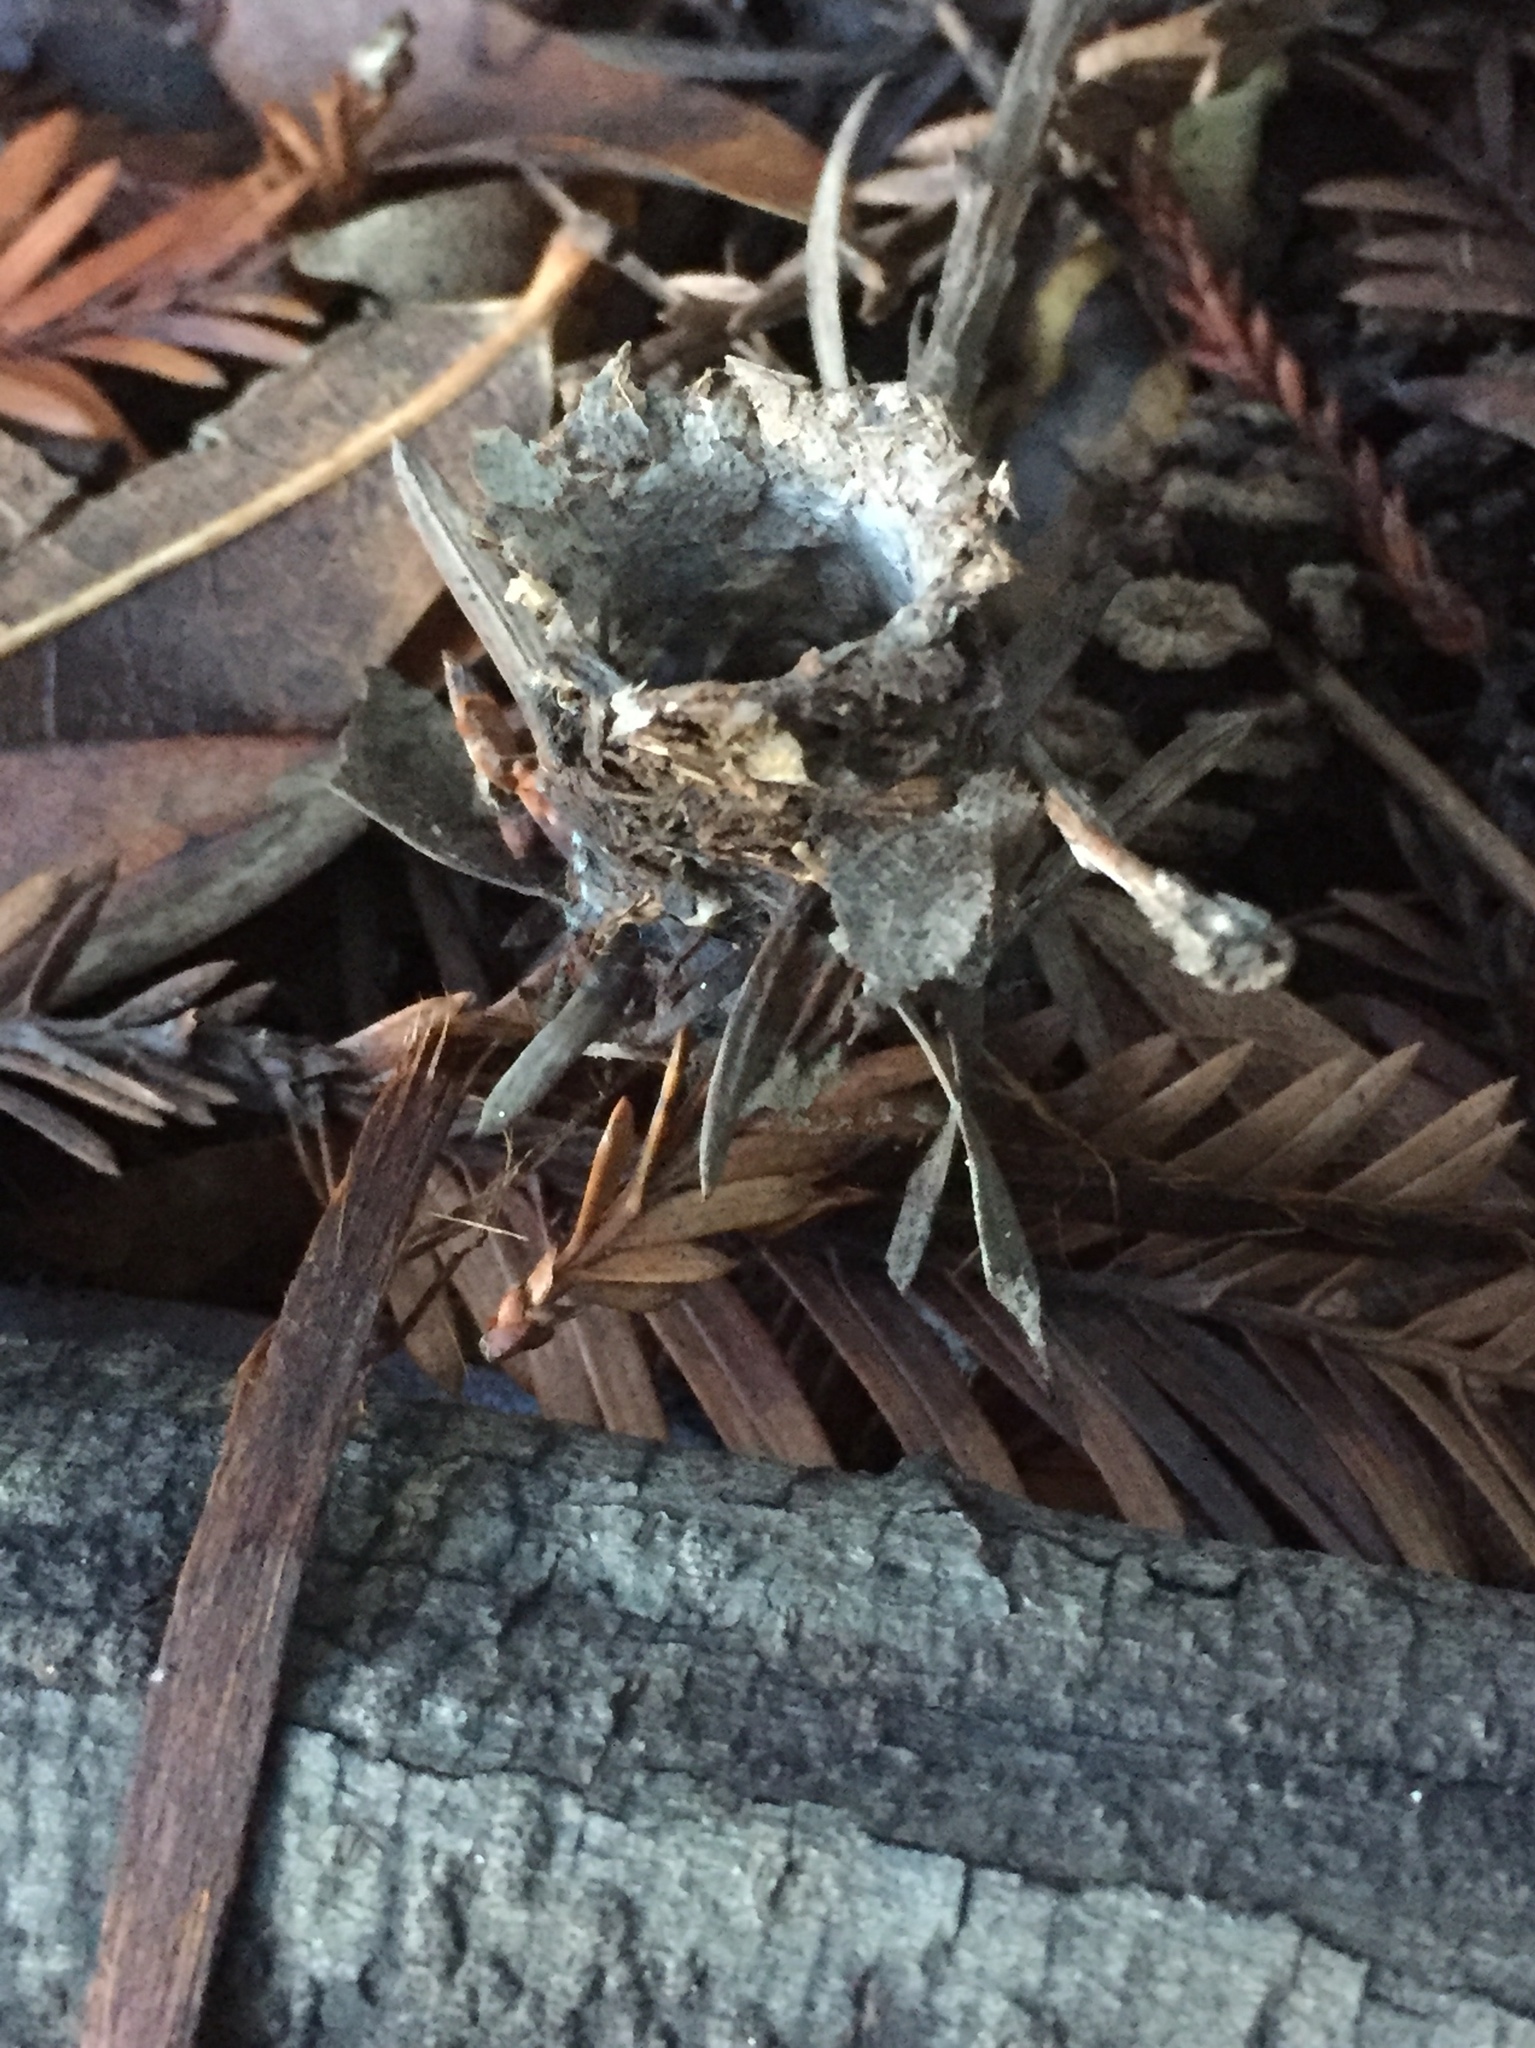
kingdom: Animalia
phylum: Arthropoda
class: Arachnida
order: Araneae
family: Antrodiaetidae
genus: Atypoides
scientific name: Atypoides riversi
